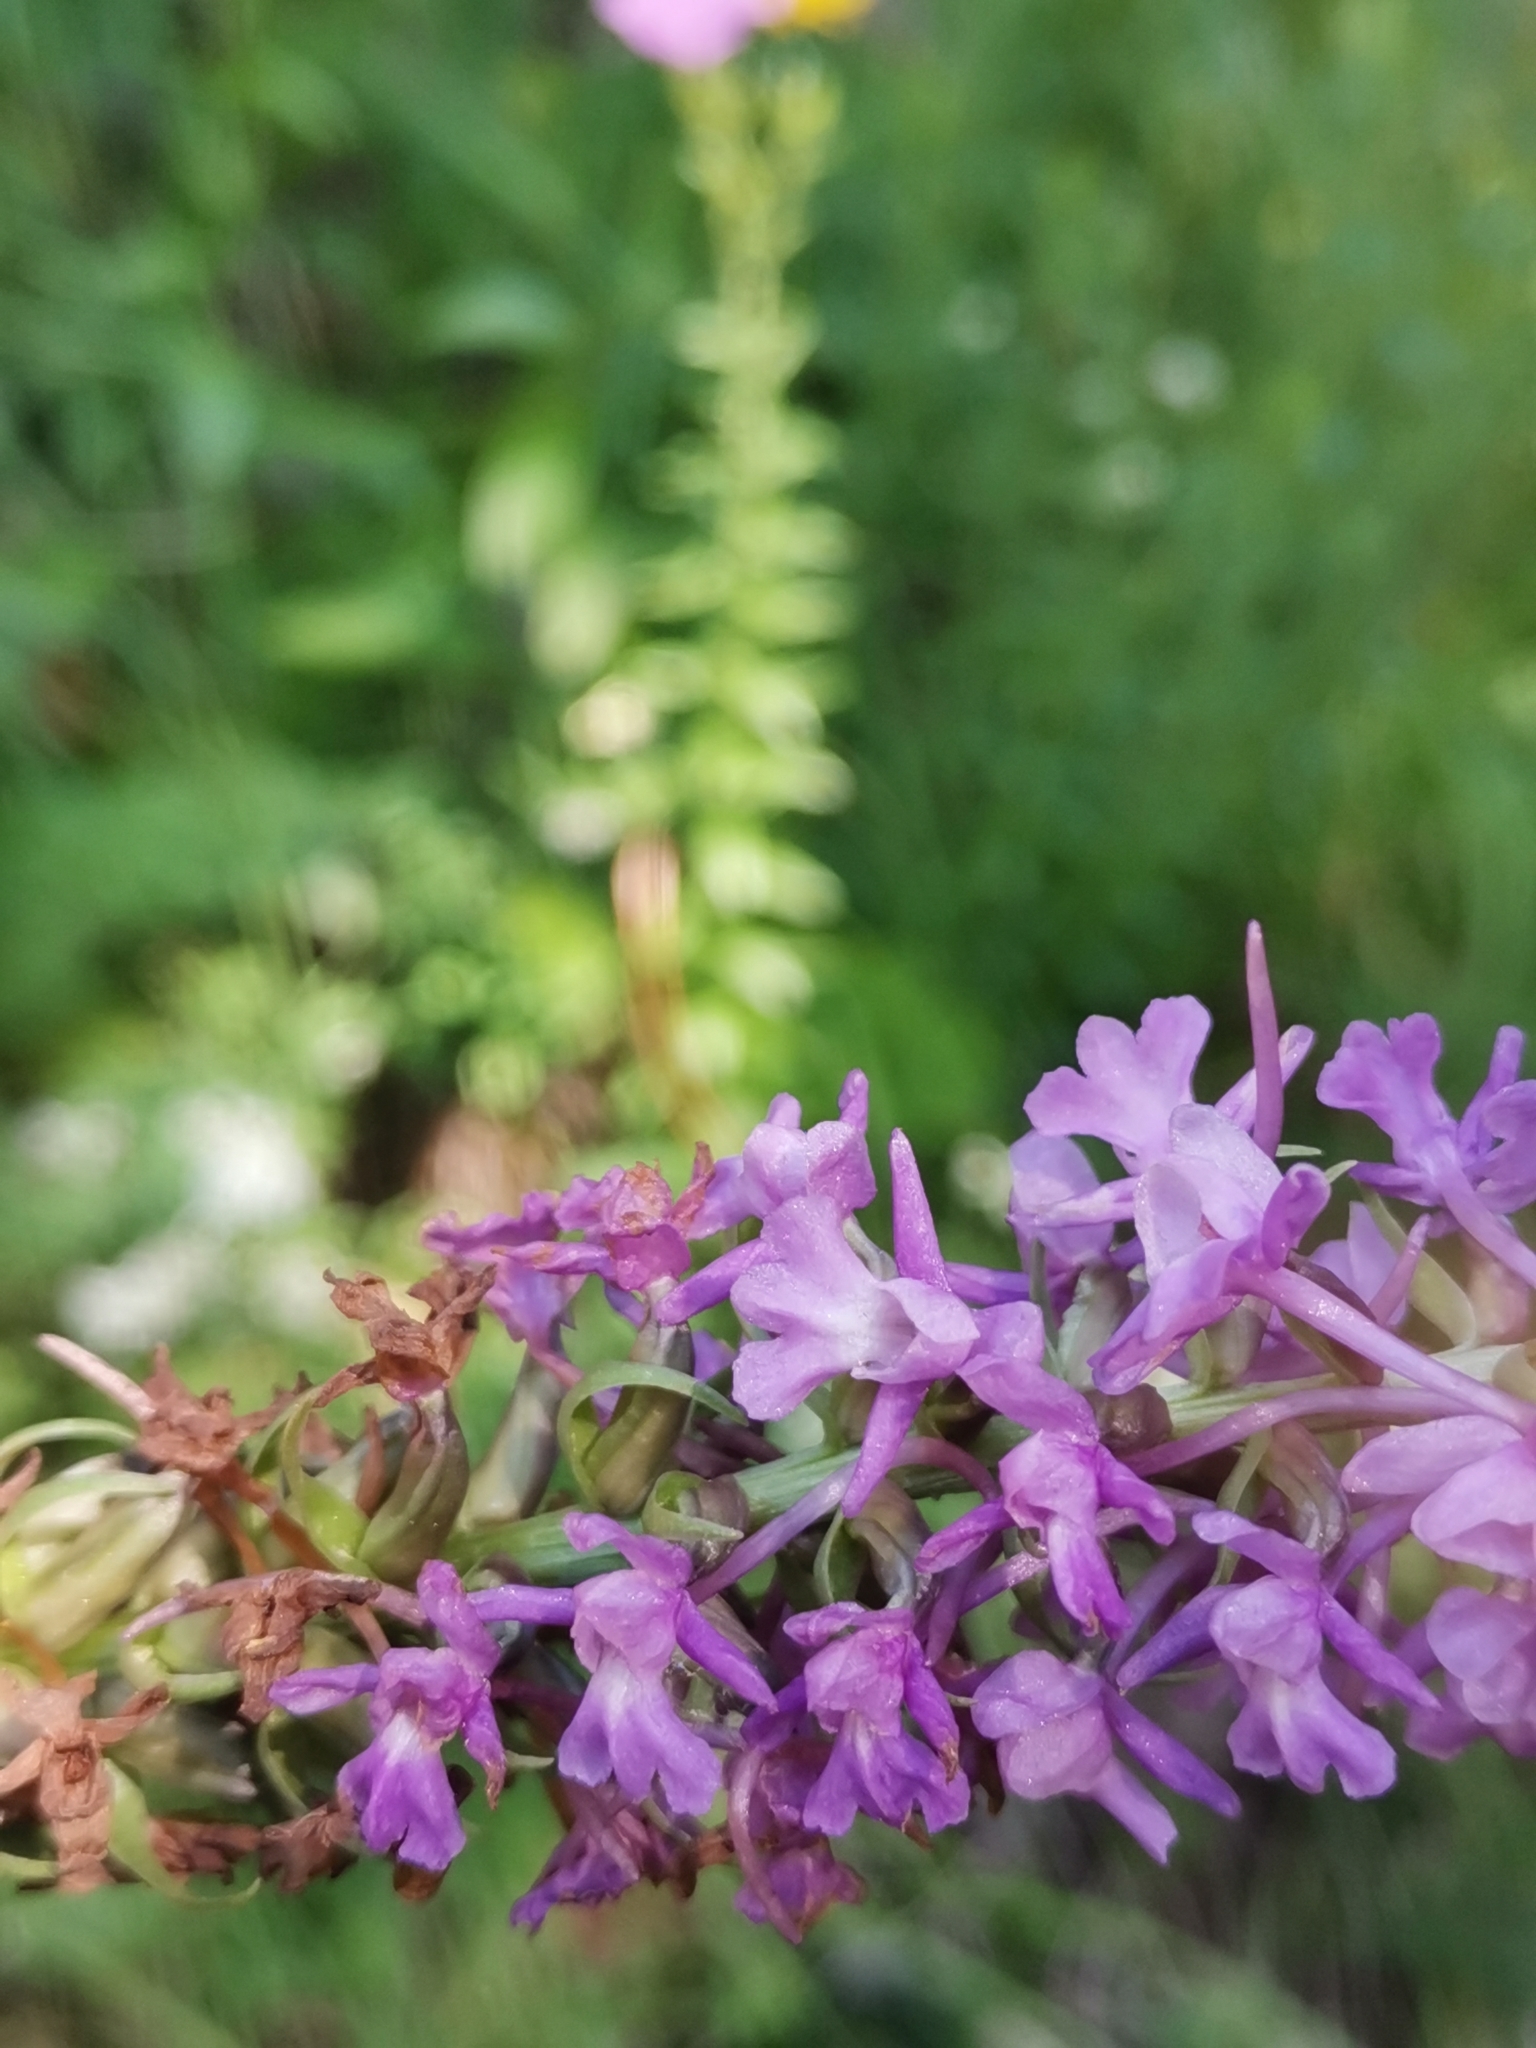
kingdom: Plantae
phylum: Tracheophyta
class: Liliopsida
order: Asparagales
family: Orchidaceae
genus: Gymnadenia
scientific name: Gymnadenia densiflora
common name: Marsh fragrant-orchid
